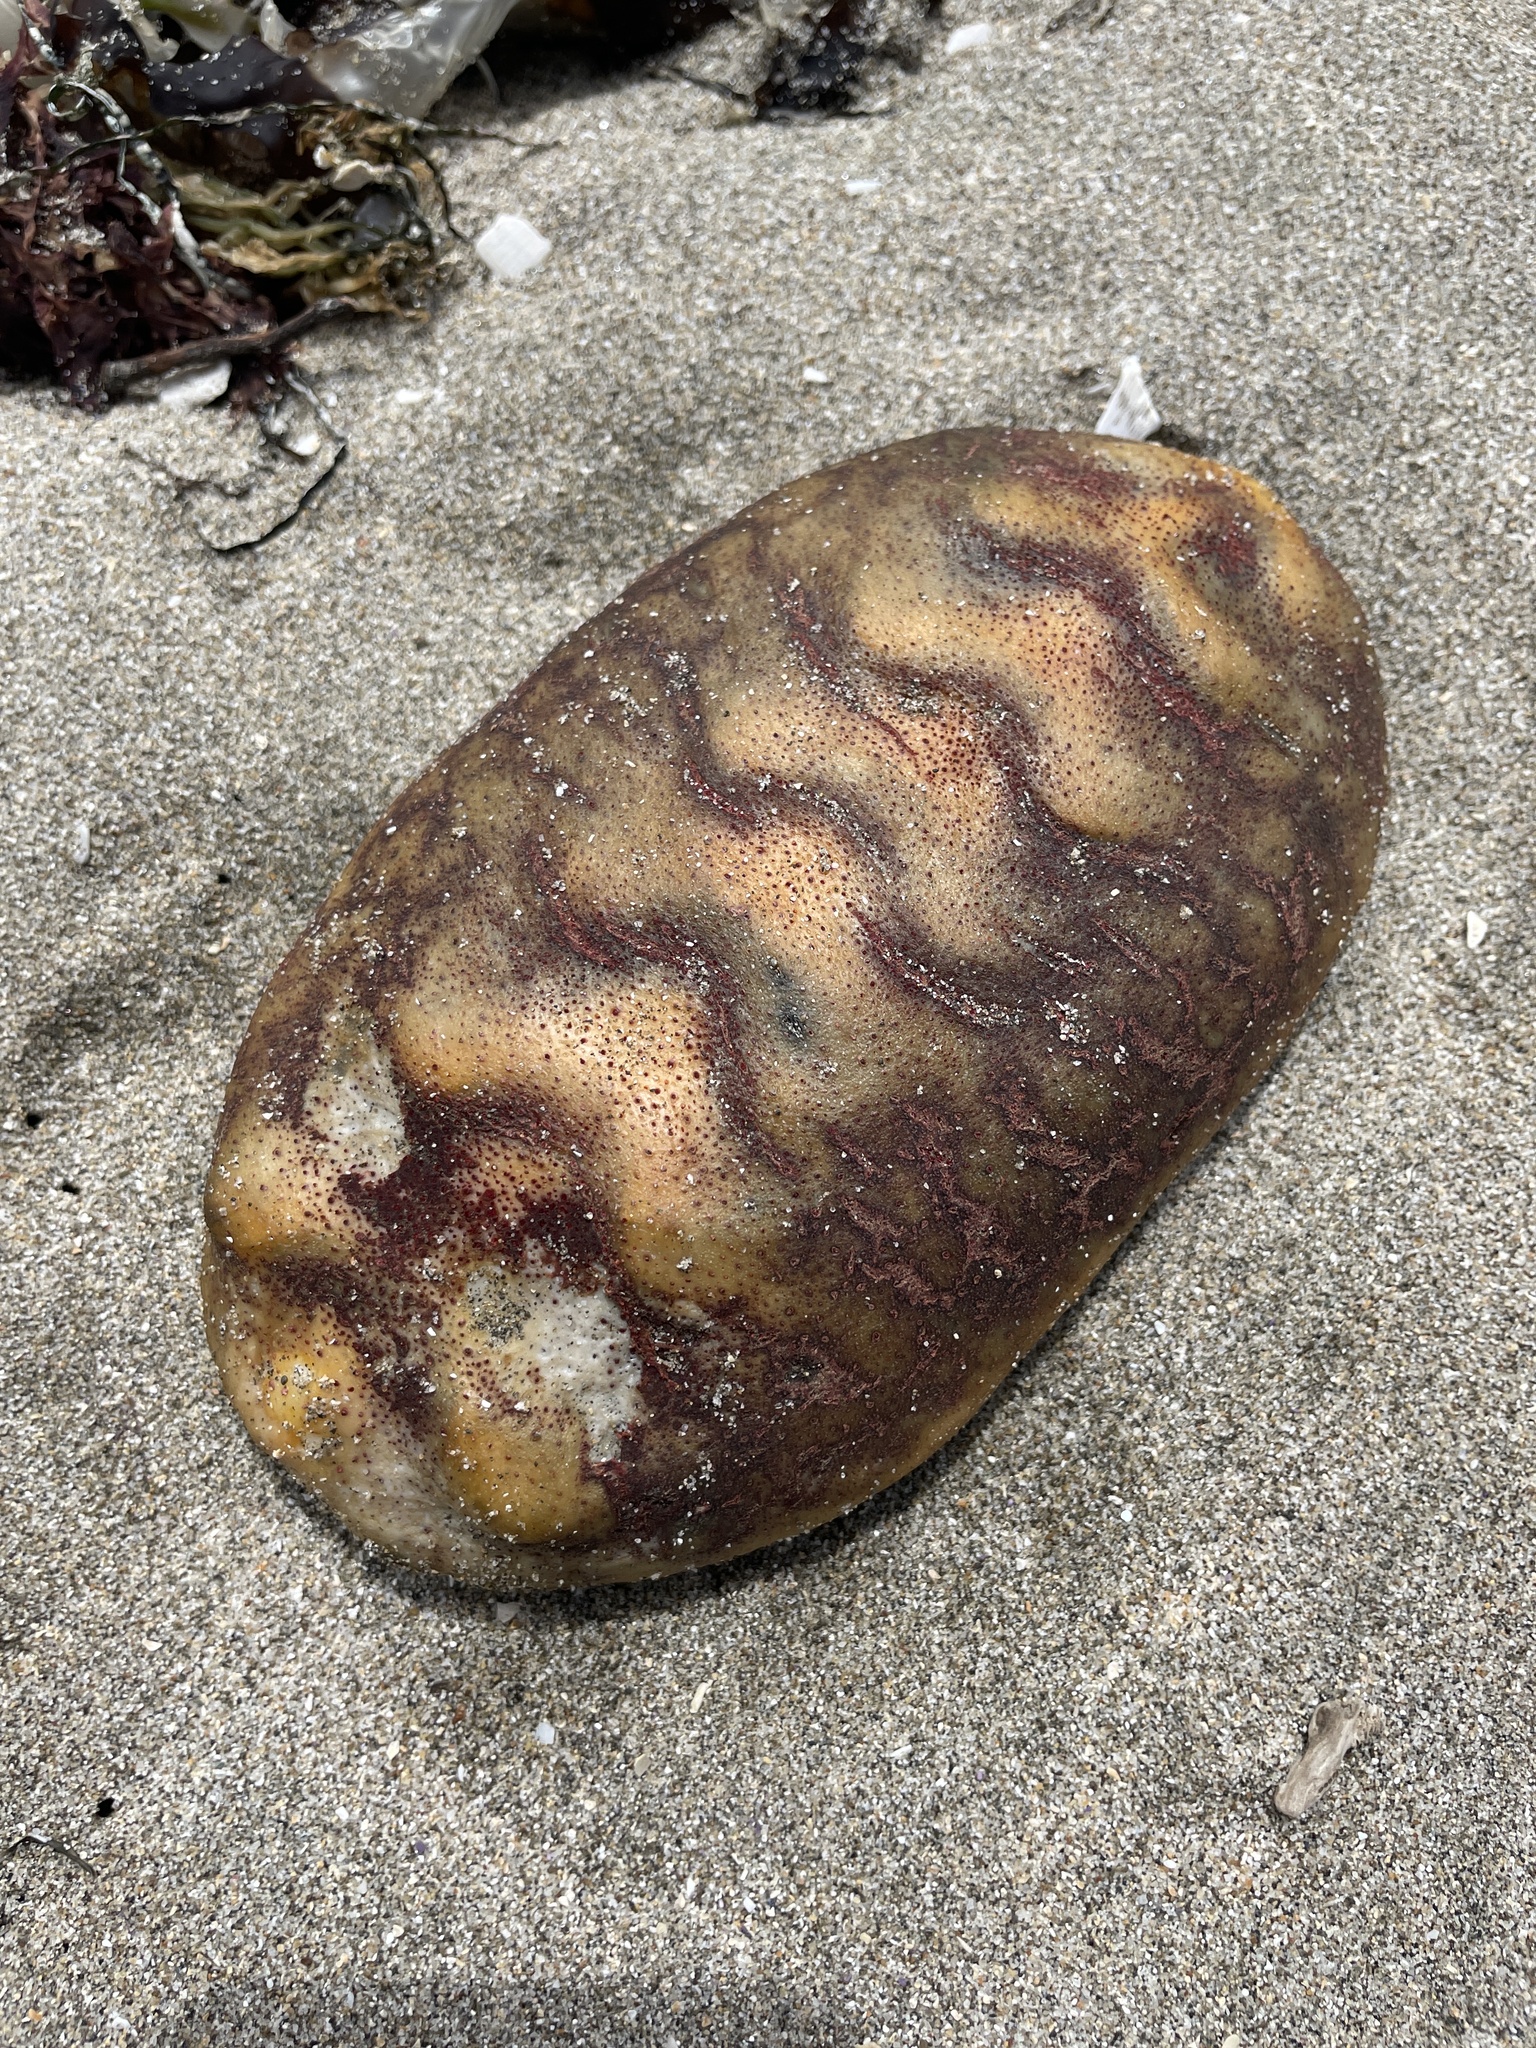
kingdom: Animalia
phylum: Mollusca
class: Polyplacophora
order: Chitonida
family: Acanthochitonidae
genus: Cryptochiton
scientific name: Cryptochiton stelleri
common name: Giant pacific chiton
